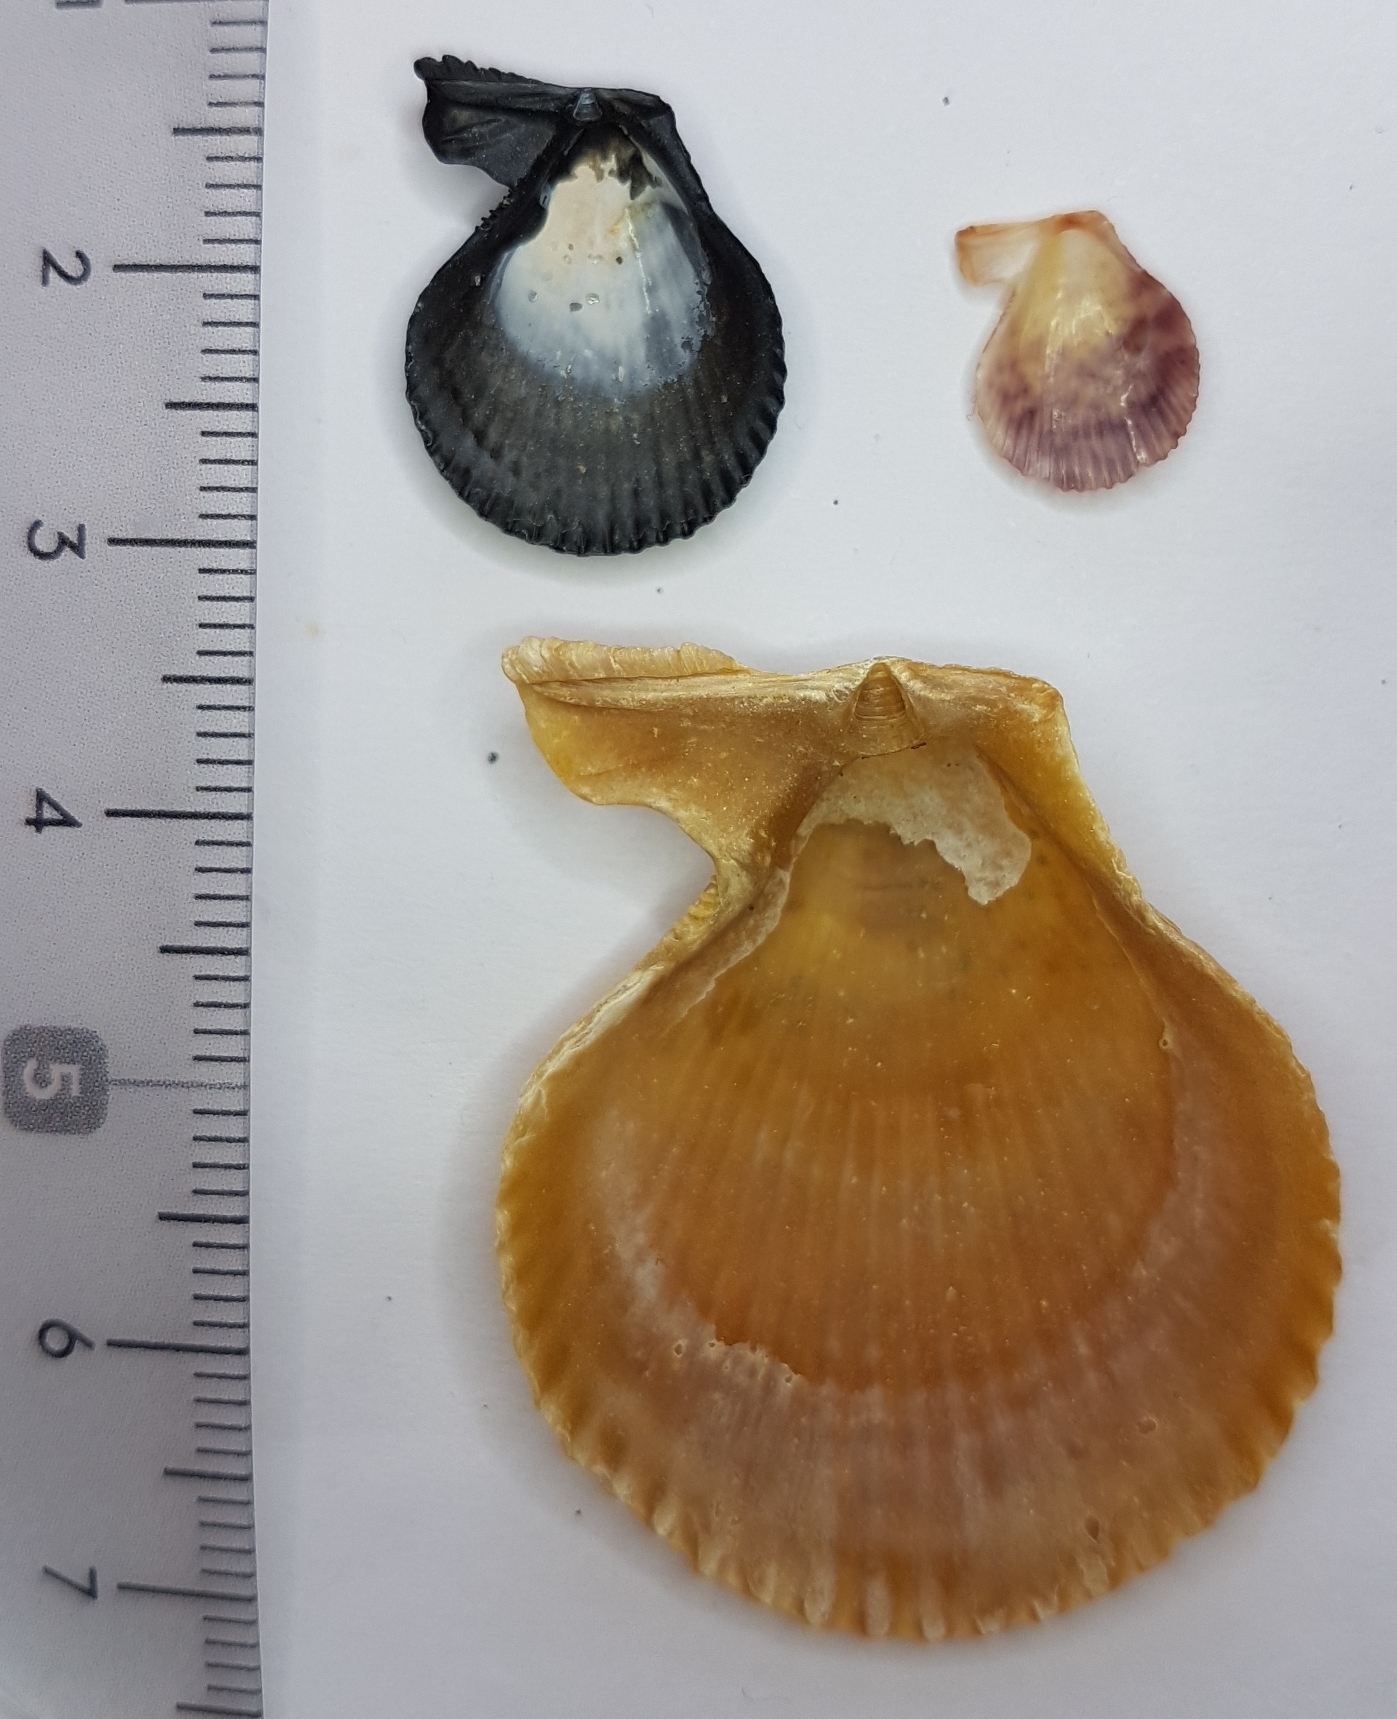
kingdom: Animalia
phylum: Mollusca
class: Bivalvia
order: Pectinida
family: Pectinidae
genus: Mimachlamys
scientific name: Mimachlamys varia
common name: Variegated scallop
